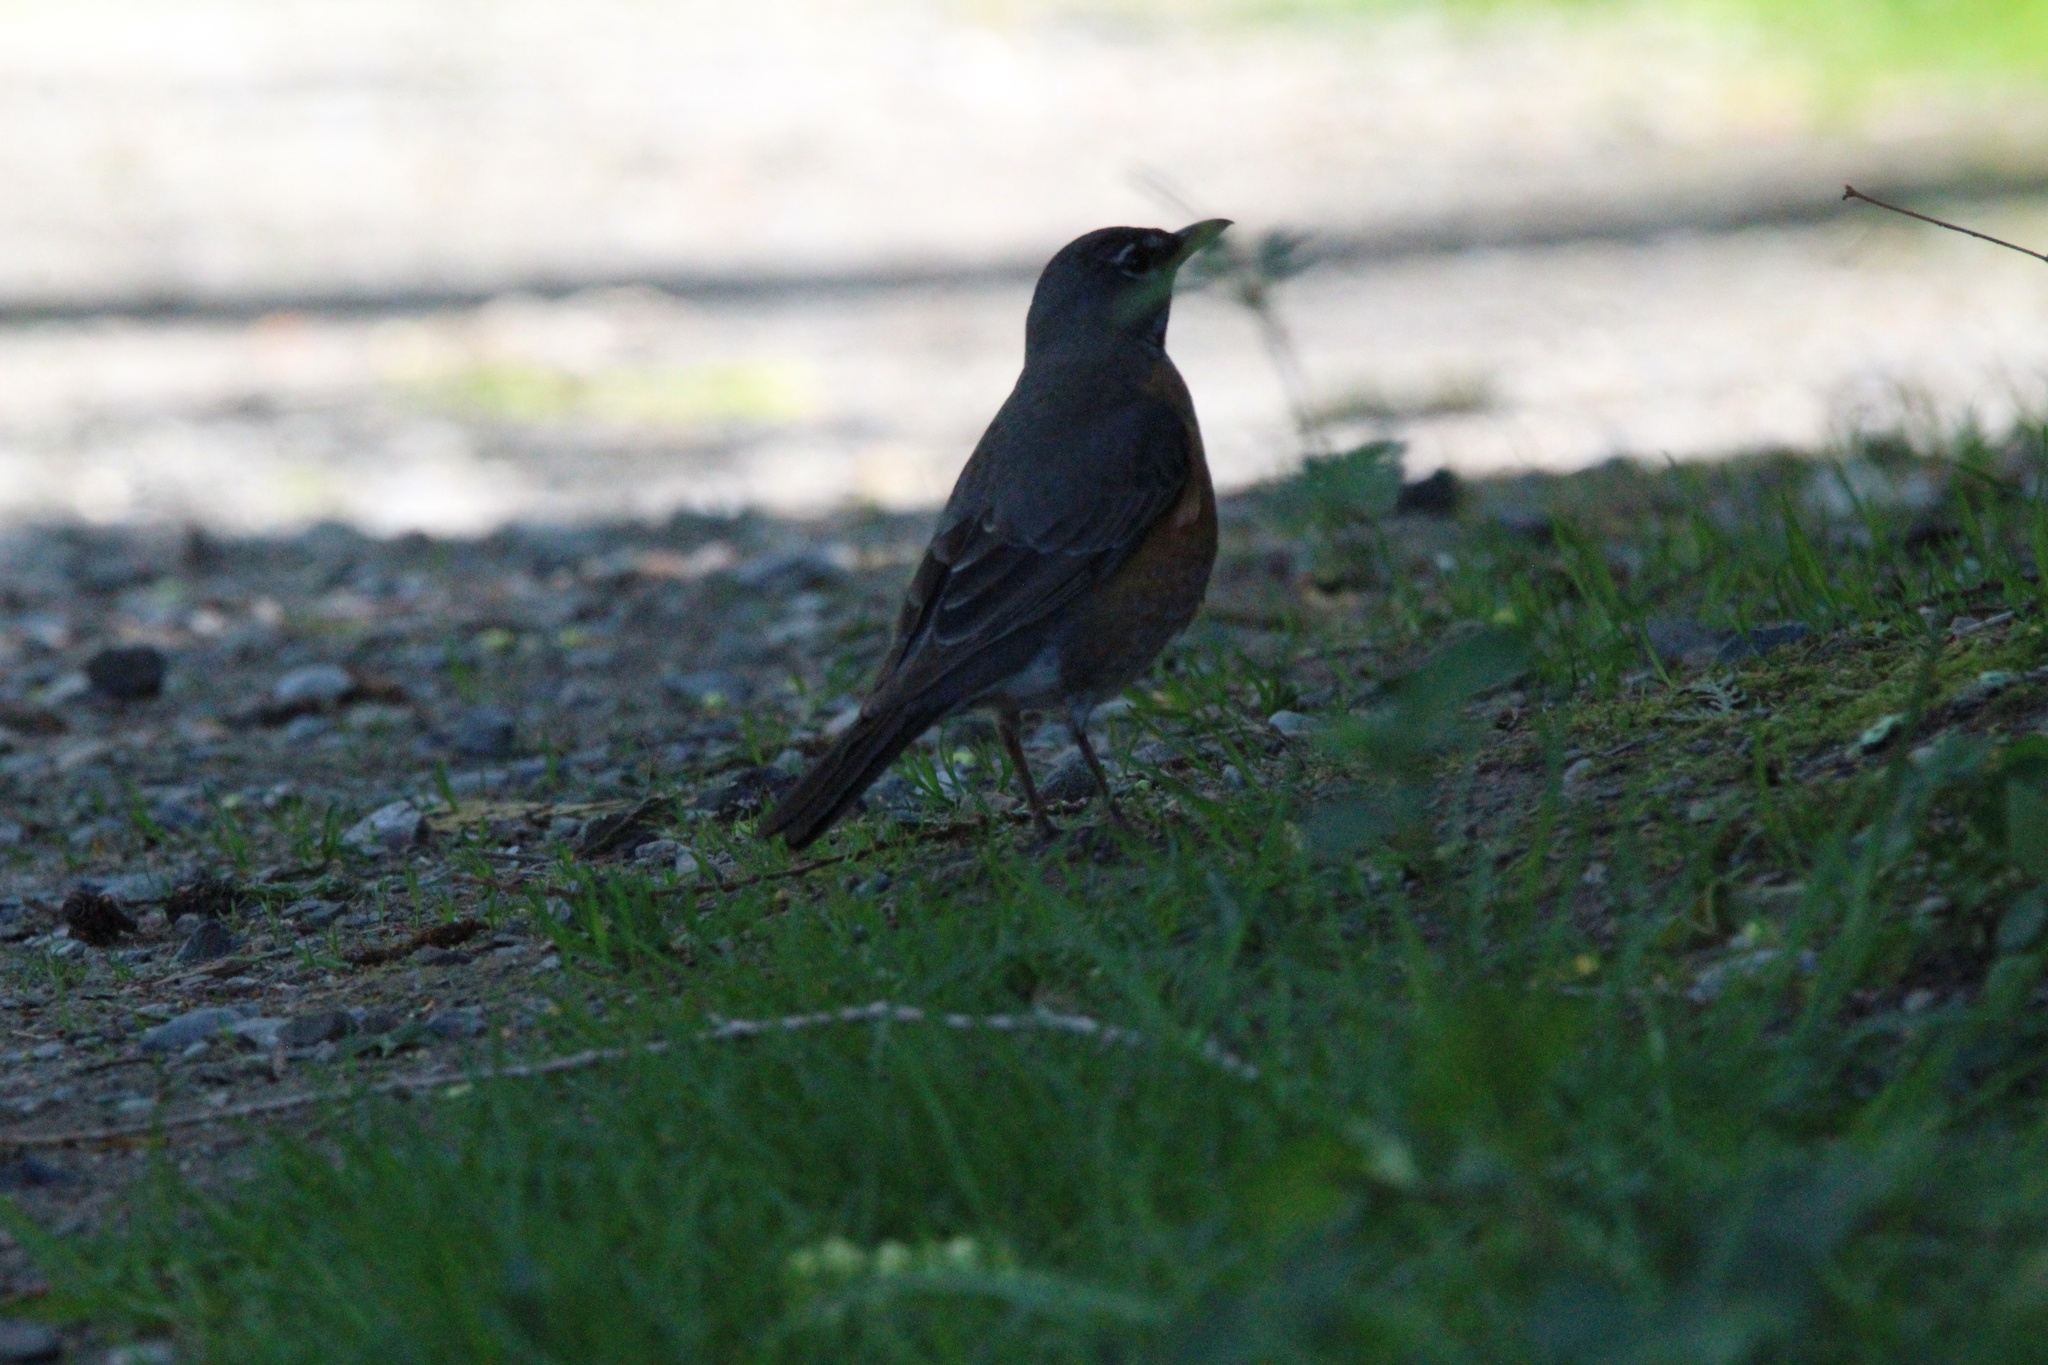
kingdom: Animalia
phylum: Chordata
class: Aves
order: Passeriformes
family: Turdidae
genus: Turdus
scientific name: Turdus migratorius
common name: American robin
